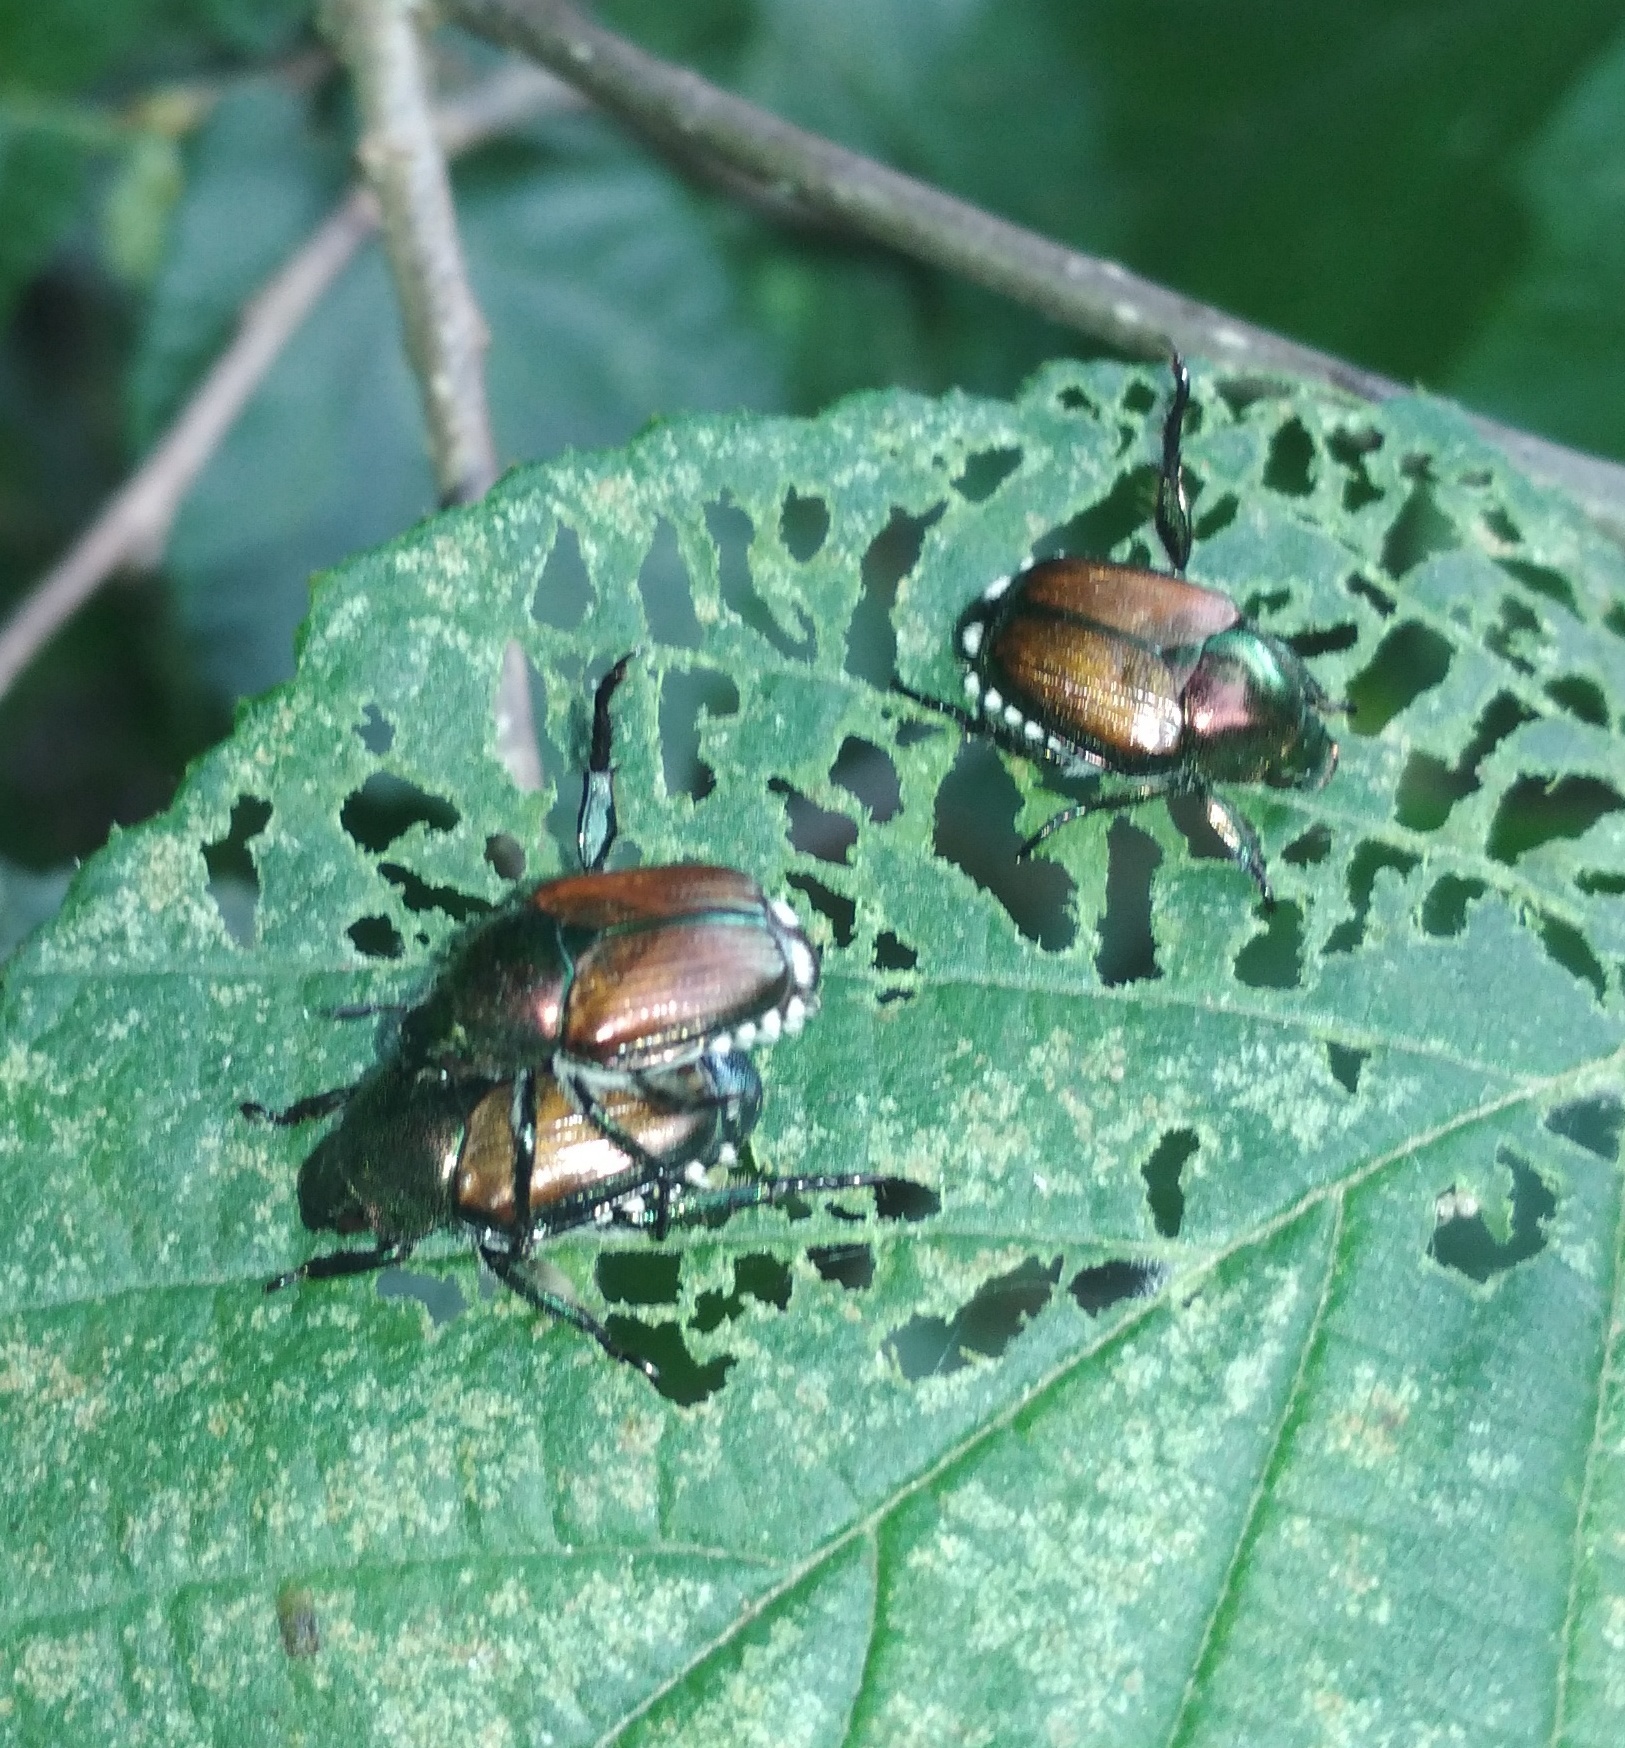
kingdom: Animalia
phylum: Arthropoda
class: Insecta
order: Coleoptera
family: Scarabaeidae
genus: Popillia
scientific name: Popillia japonica
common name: Japanese beetle
